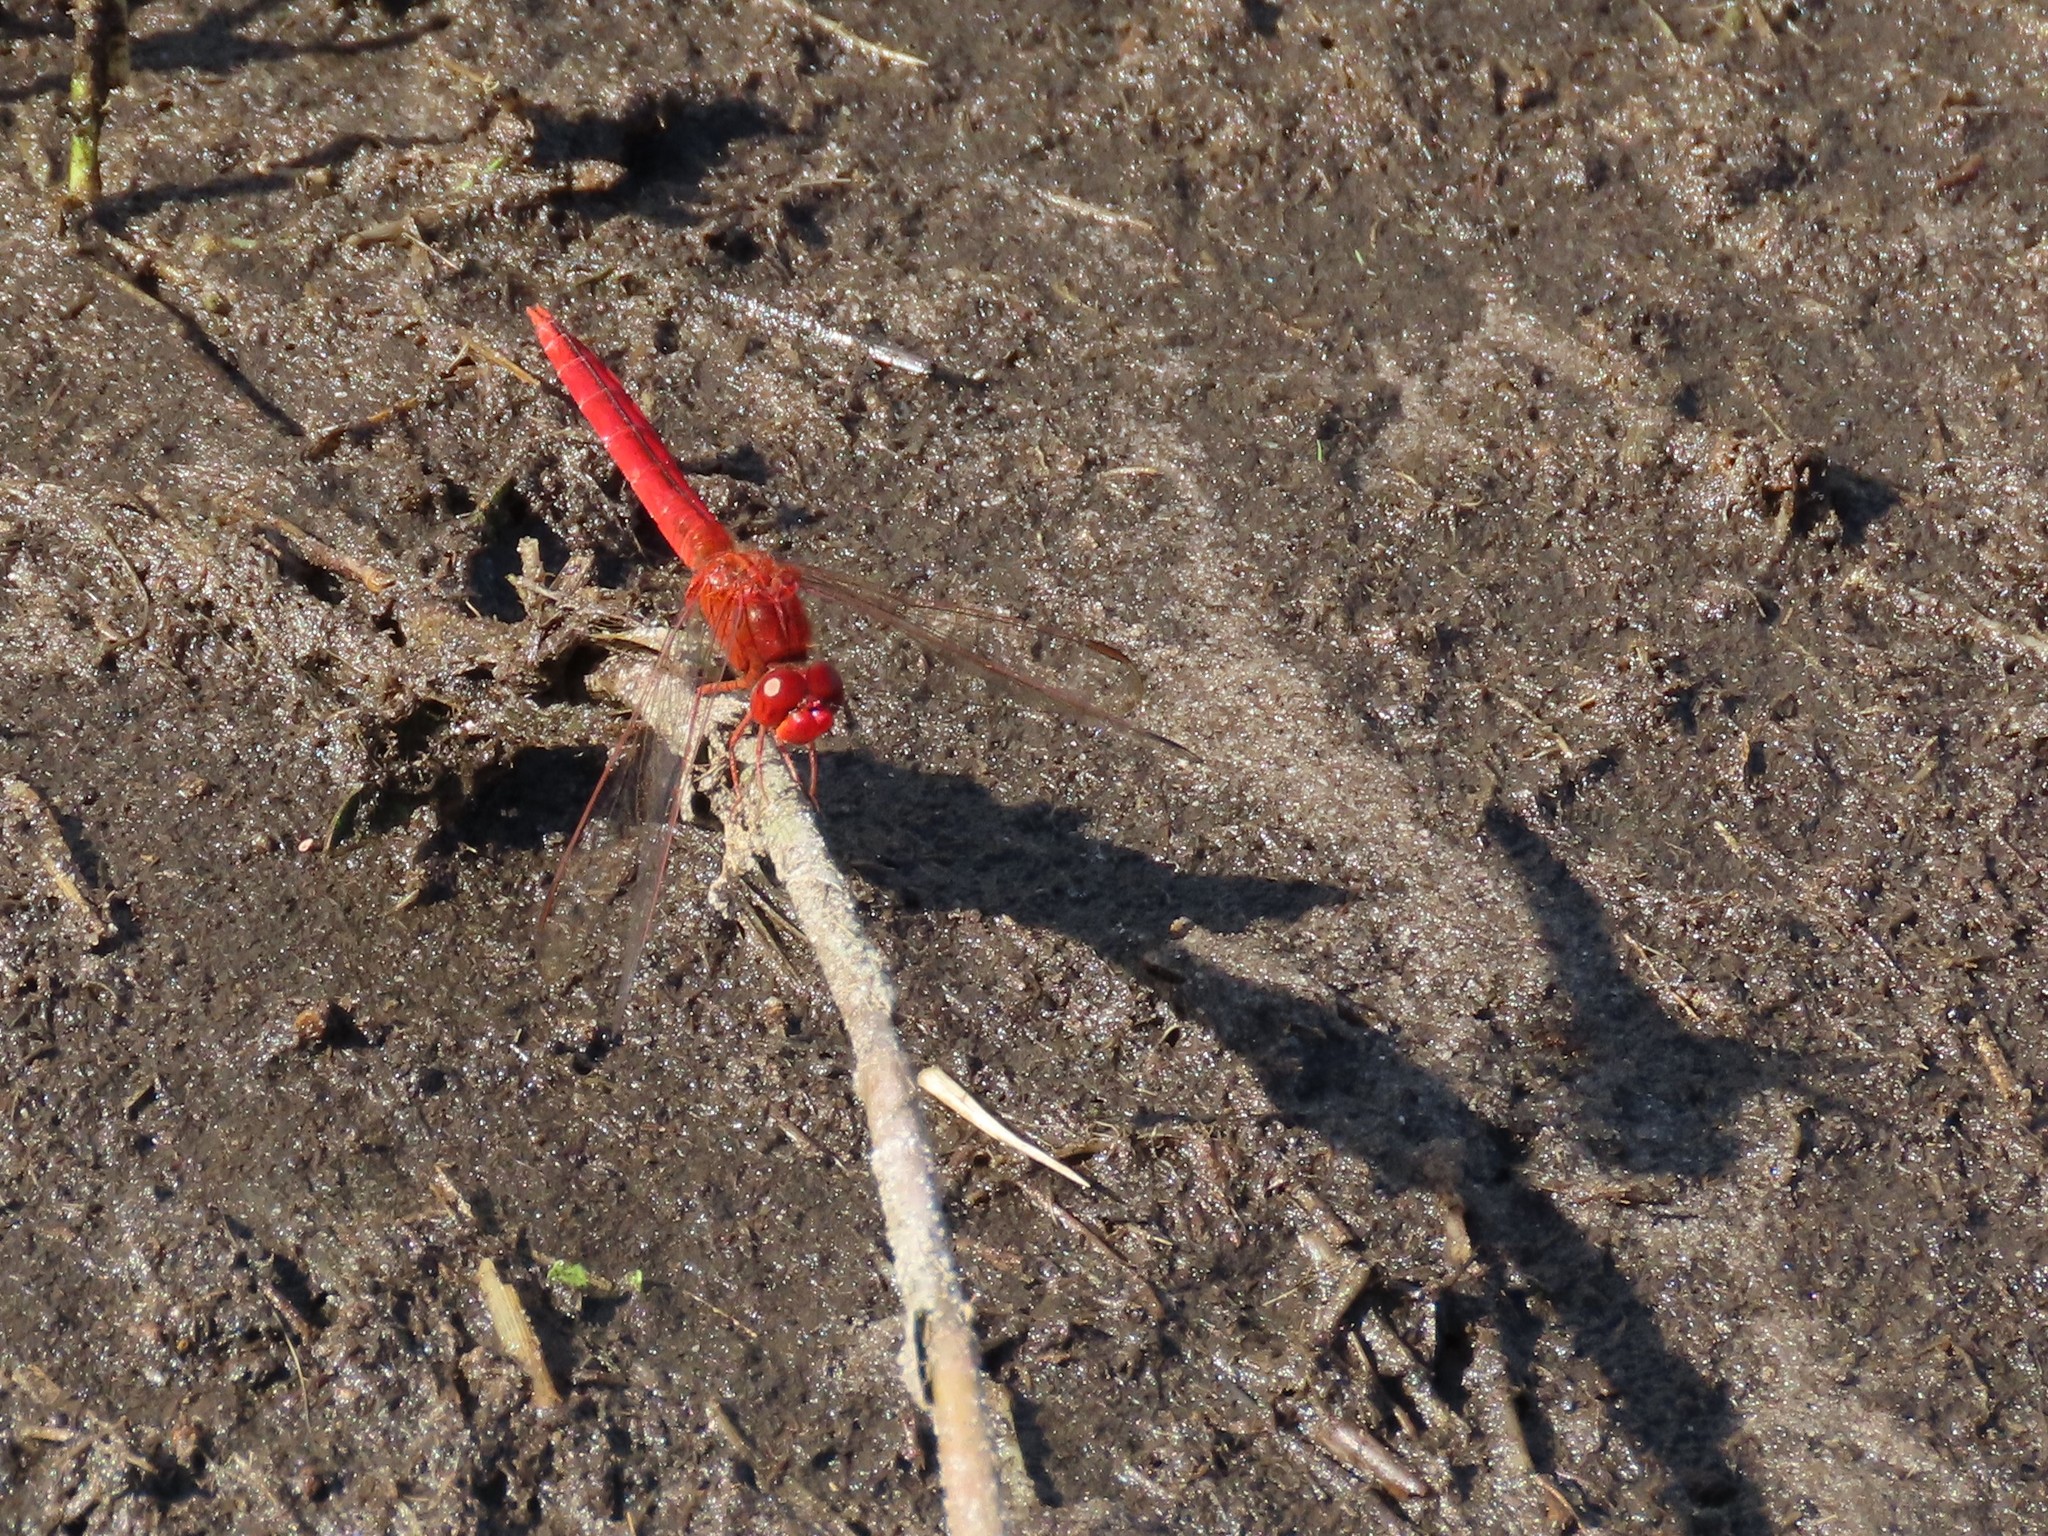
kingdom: Animalia
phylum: Arthropoda
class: Insecta
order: Odonata
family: Libellulidae
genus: Crocothemis
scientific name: Crocothemis servilia
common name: Scarlet skimmer
